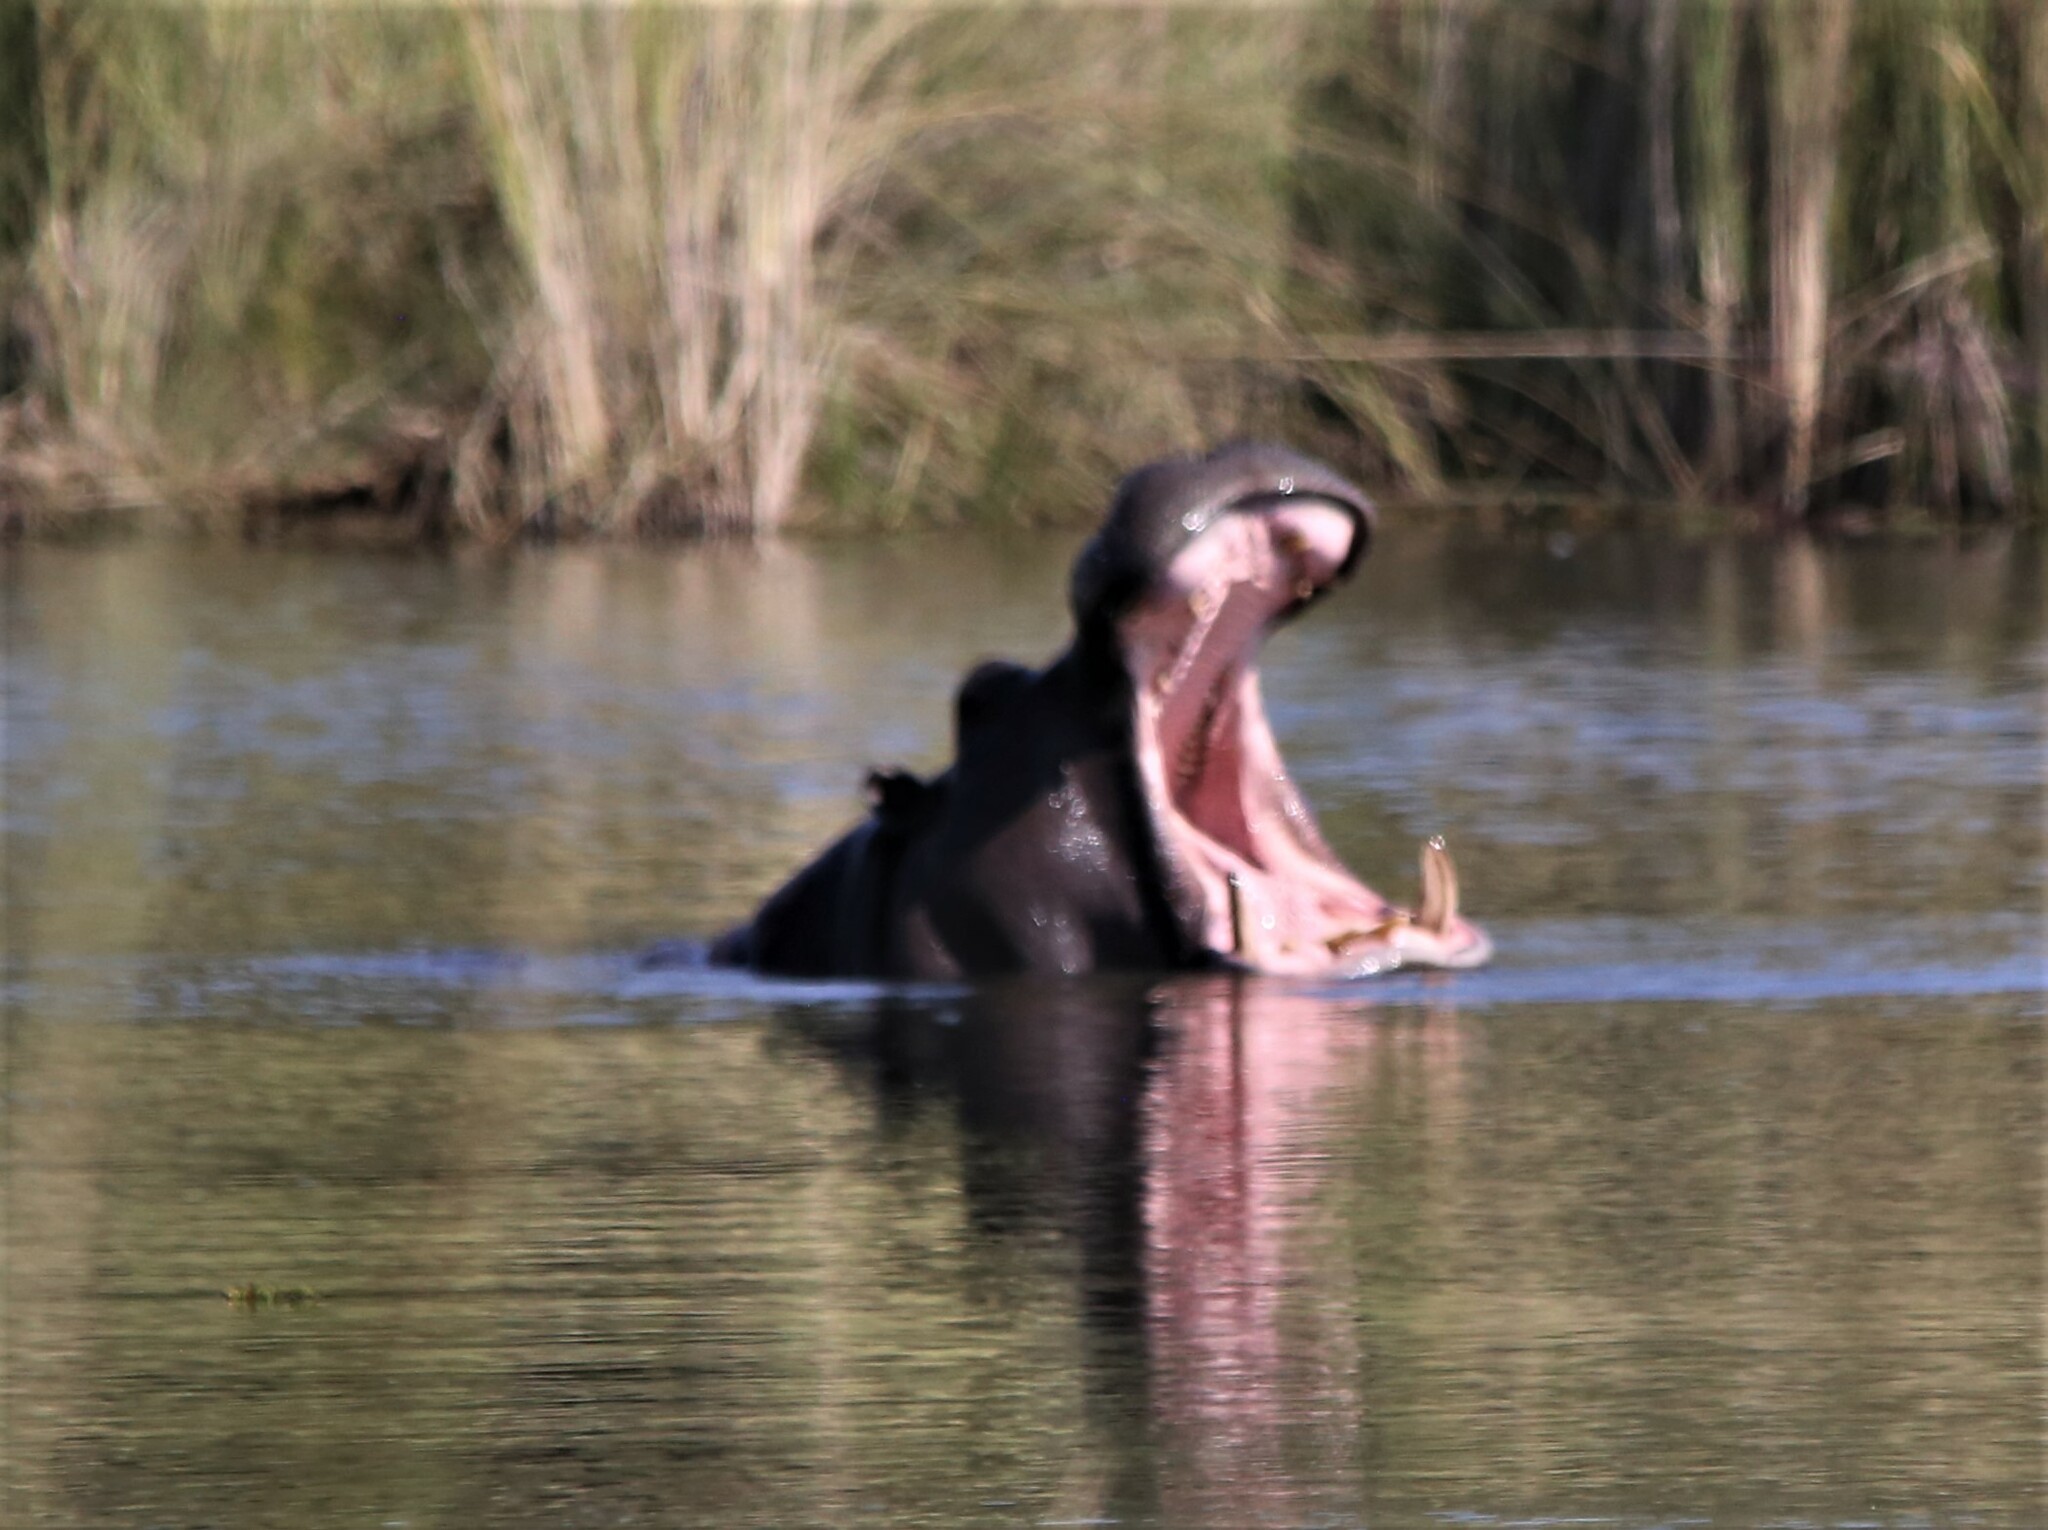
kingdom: Animalia
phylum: Chordata
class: Mammalia
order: Artiodactyla
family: Hippopotamidae
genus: Hippopotamus
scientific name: Hippopotamus amphibius
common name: Common hippopotamus
